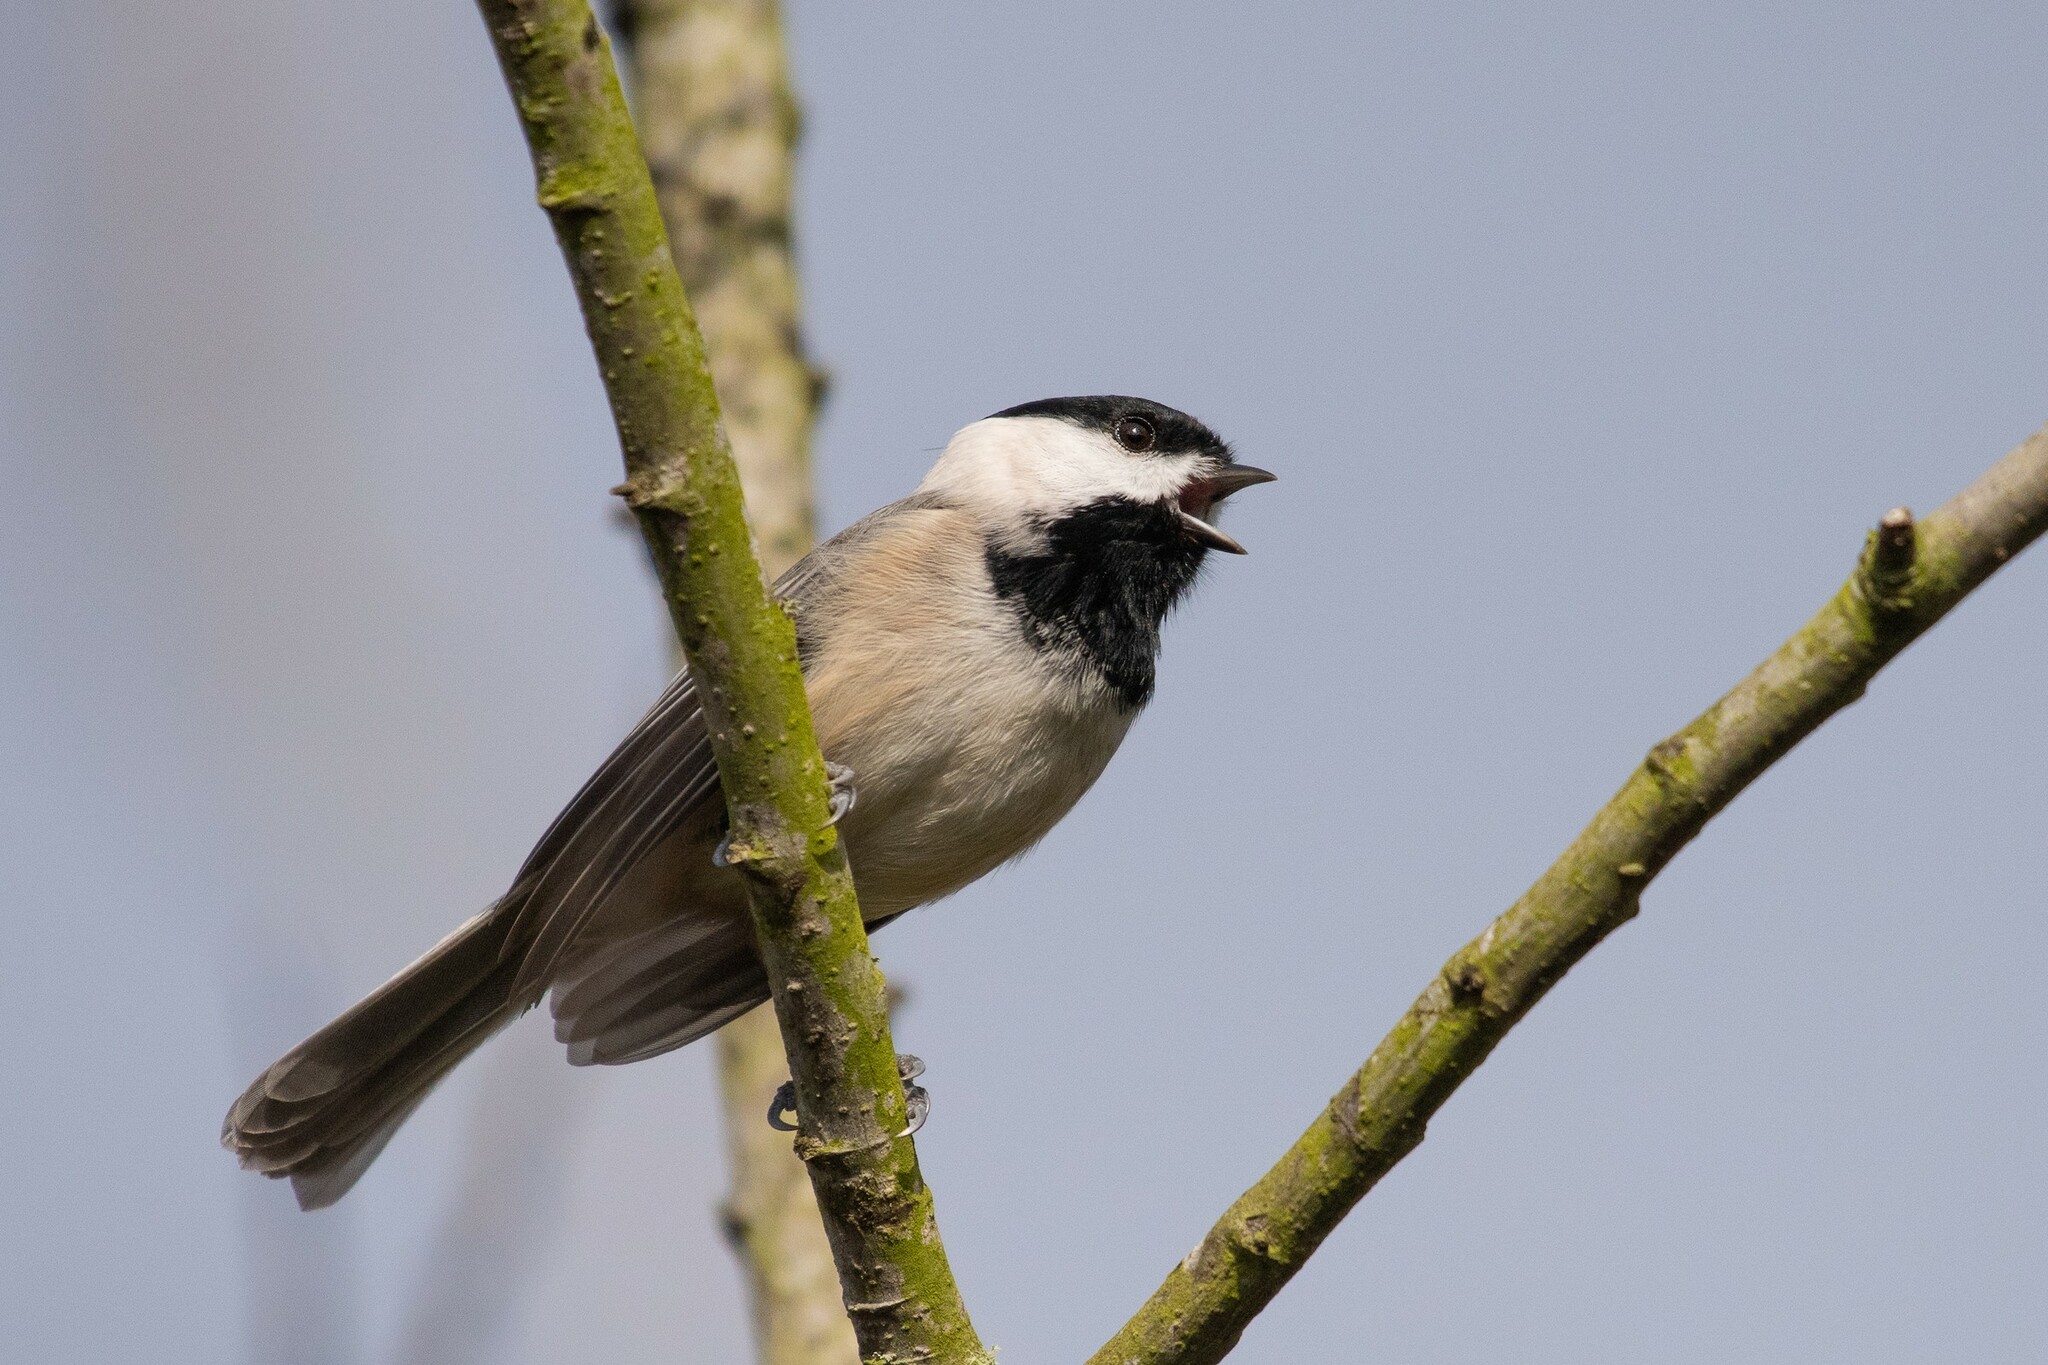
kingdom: Animalia
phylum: Chordata
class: Aves
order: Passeriformes
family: Paridae
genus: Poecile
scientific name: Poecile carolinensis
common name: Carolina chickadee
